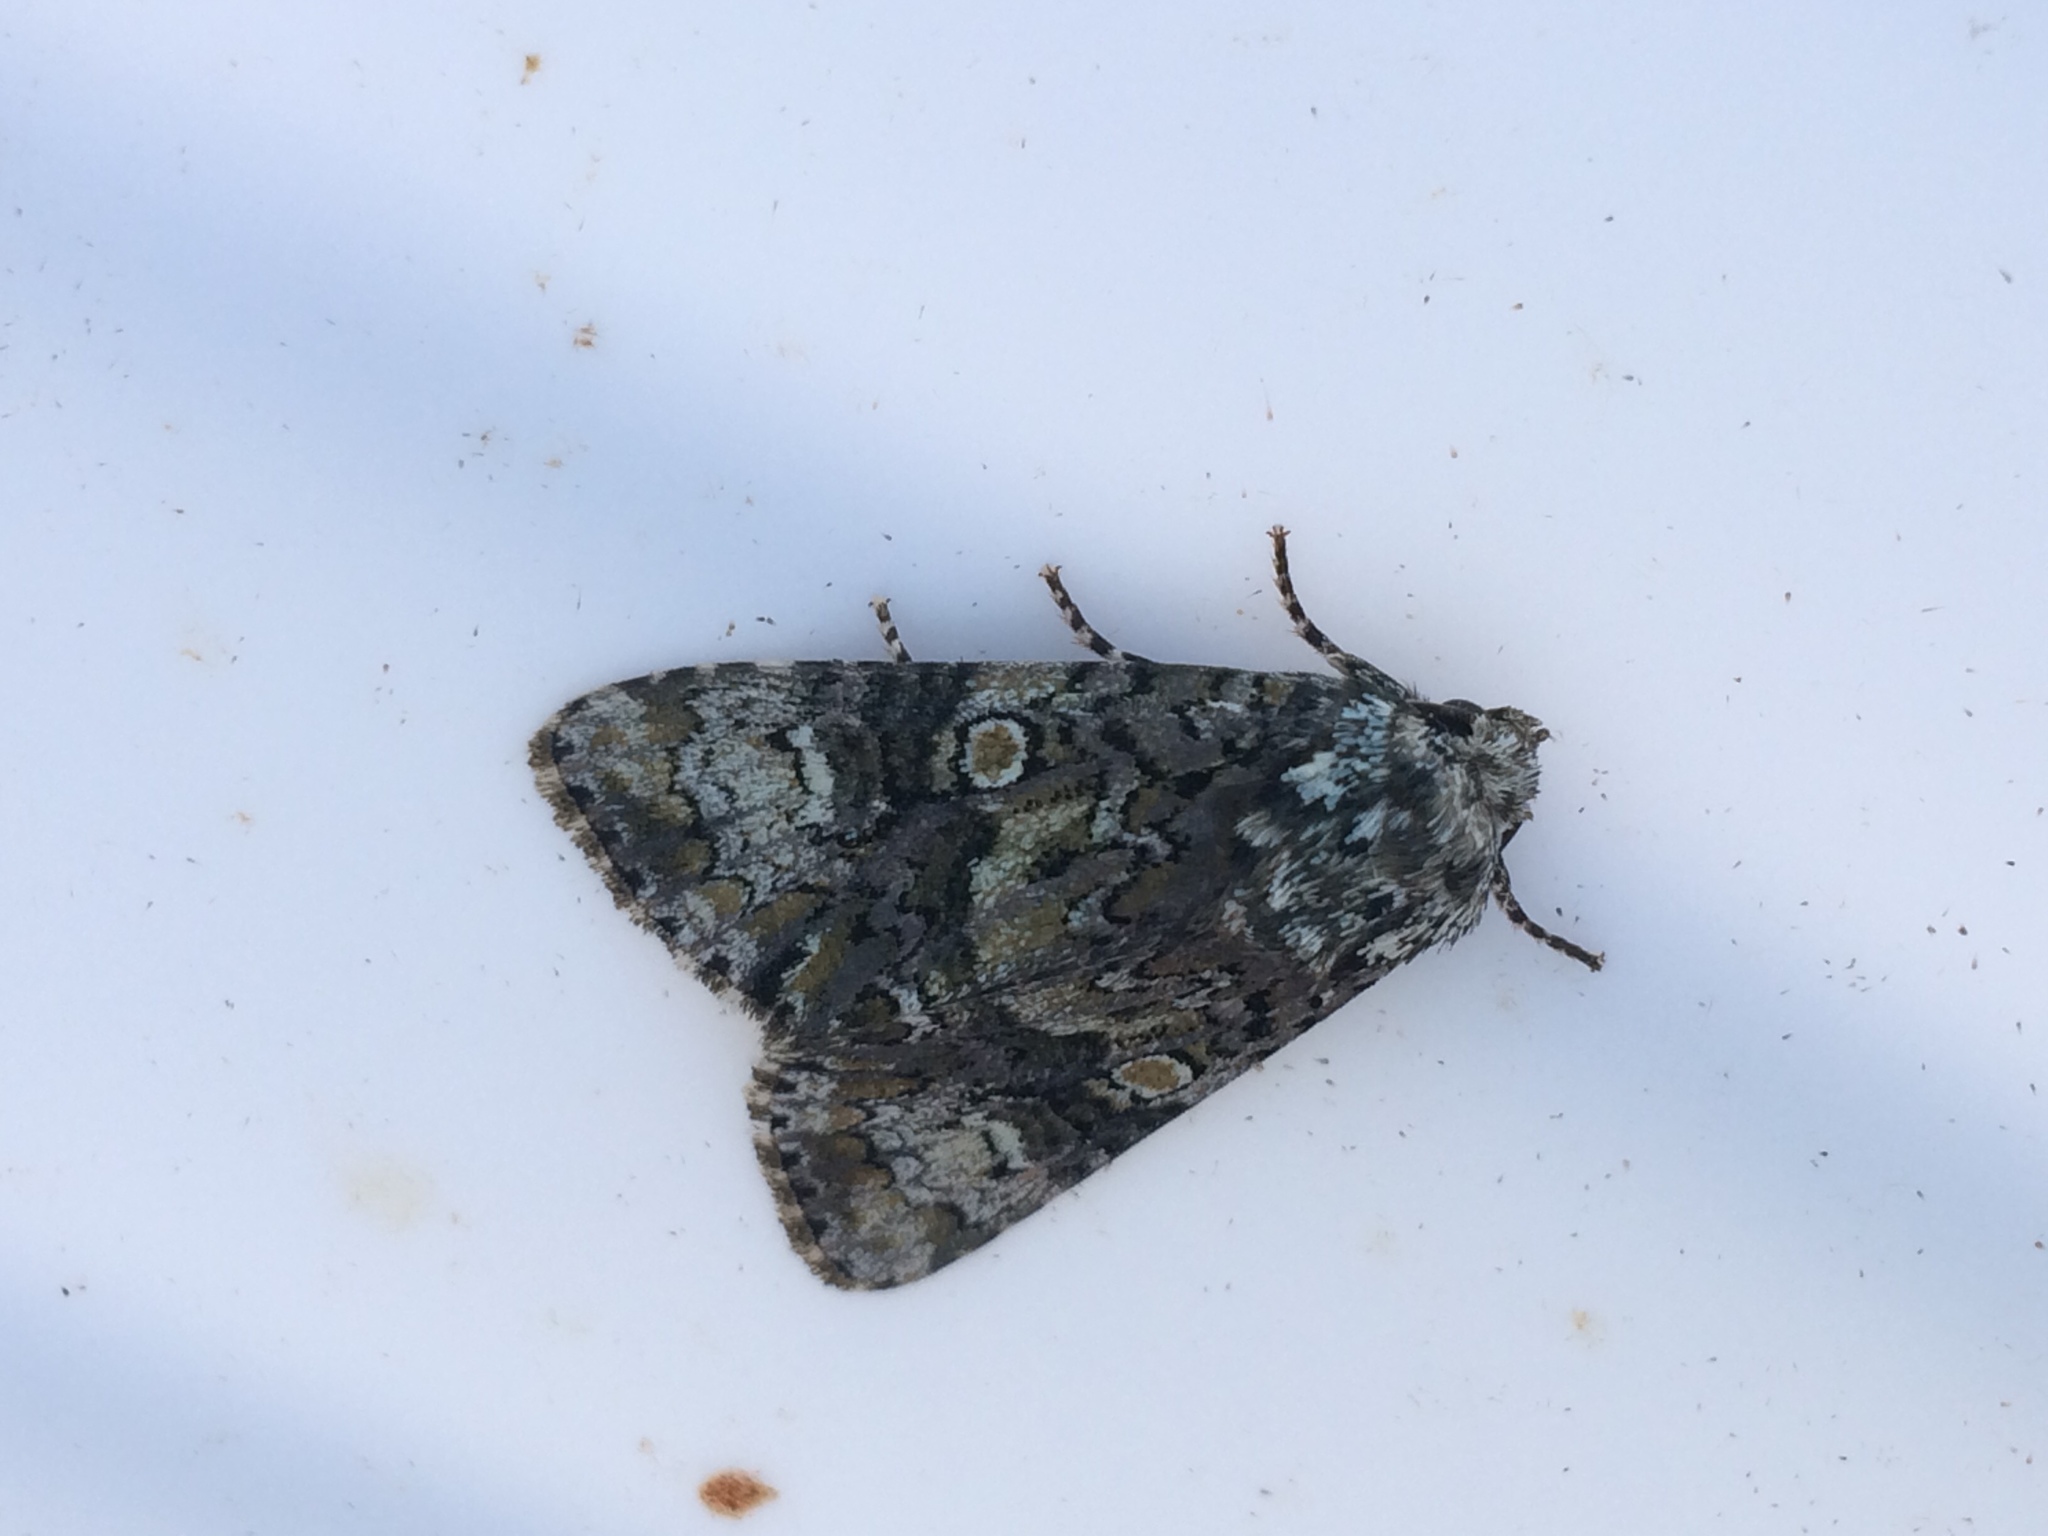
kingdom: Animalia
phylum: Arthropoda
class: Insecta
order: Lepidoptera
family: Noctuidae
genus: Craniophora
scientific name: Craniophora ligustri
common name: Coronet
